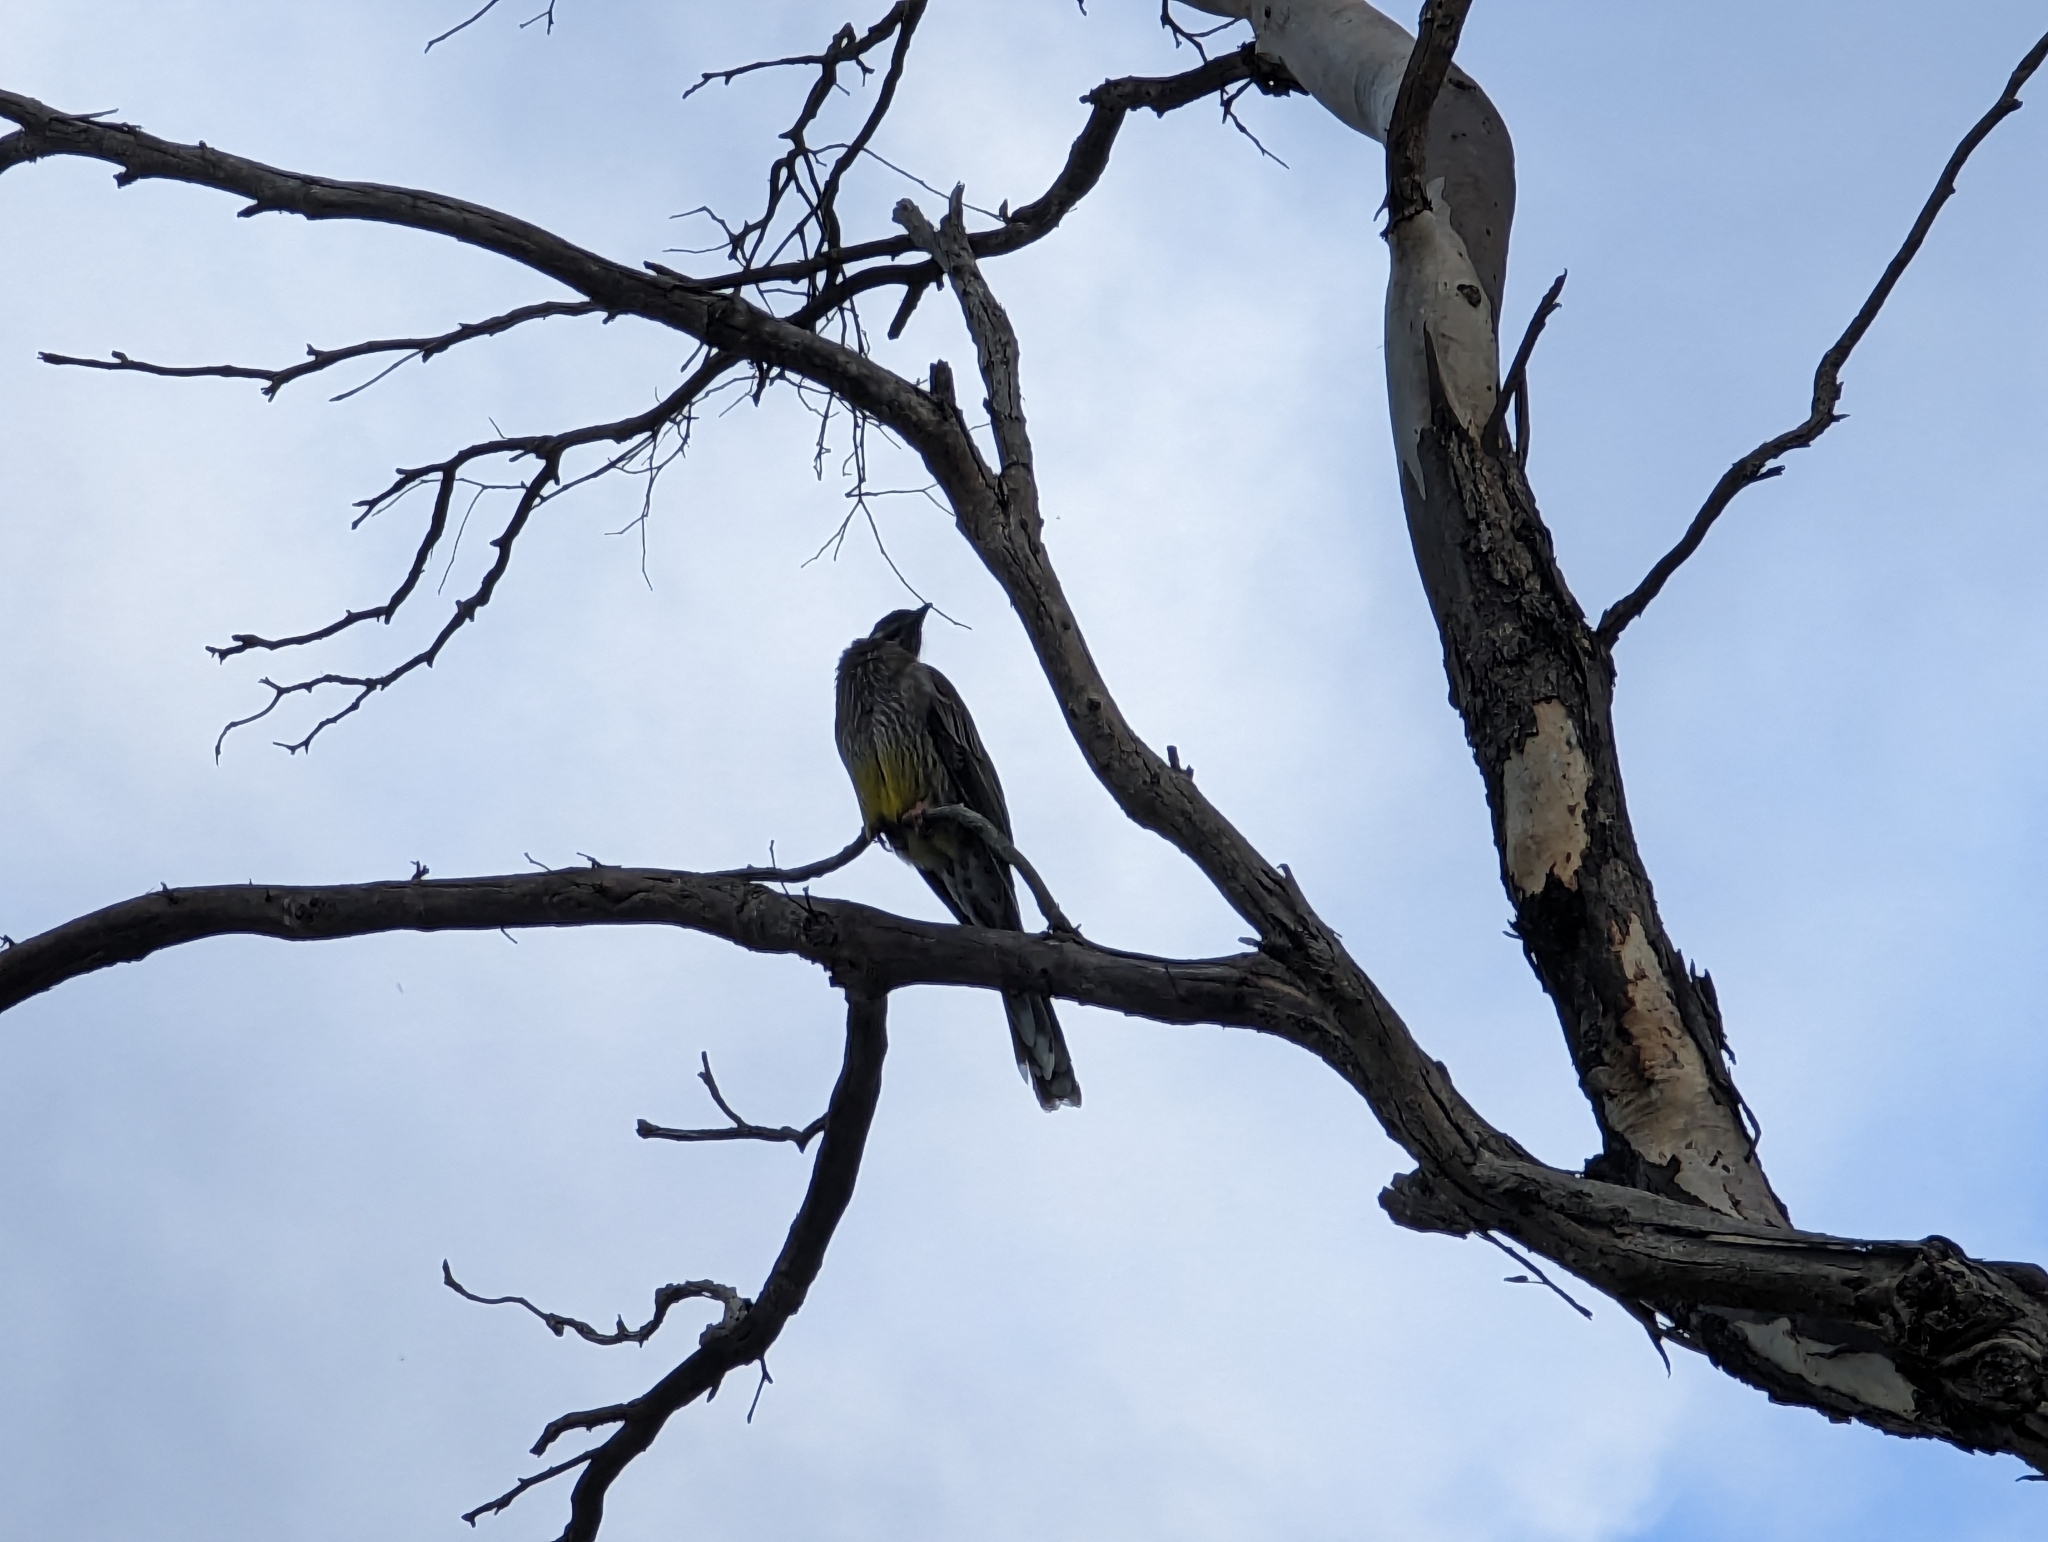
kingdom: Animalia
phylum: Chordata
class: Aves
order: Passeriformes
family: Meliphagidae
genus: Anthochaera
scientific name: Anthochaera carunculata
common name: Red wattlebird
